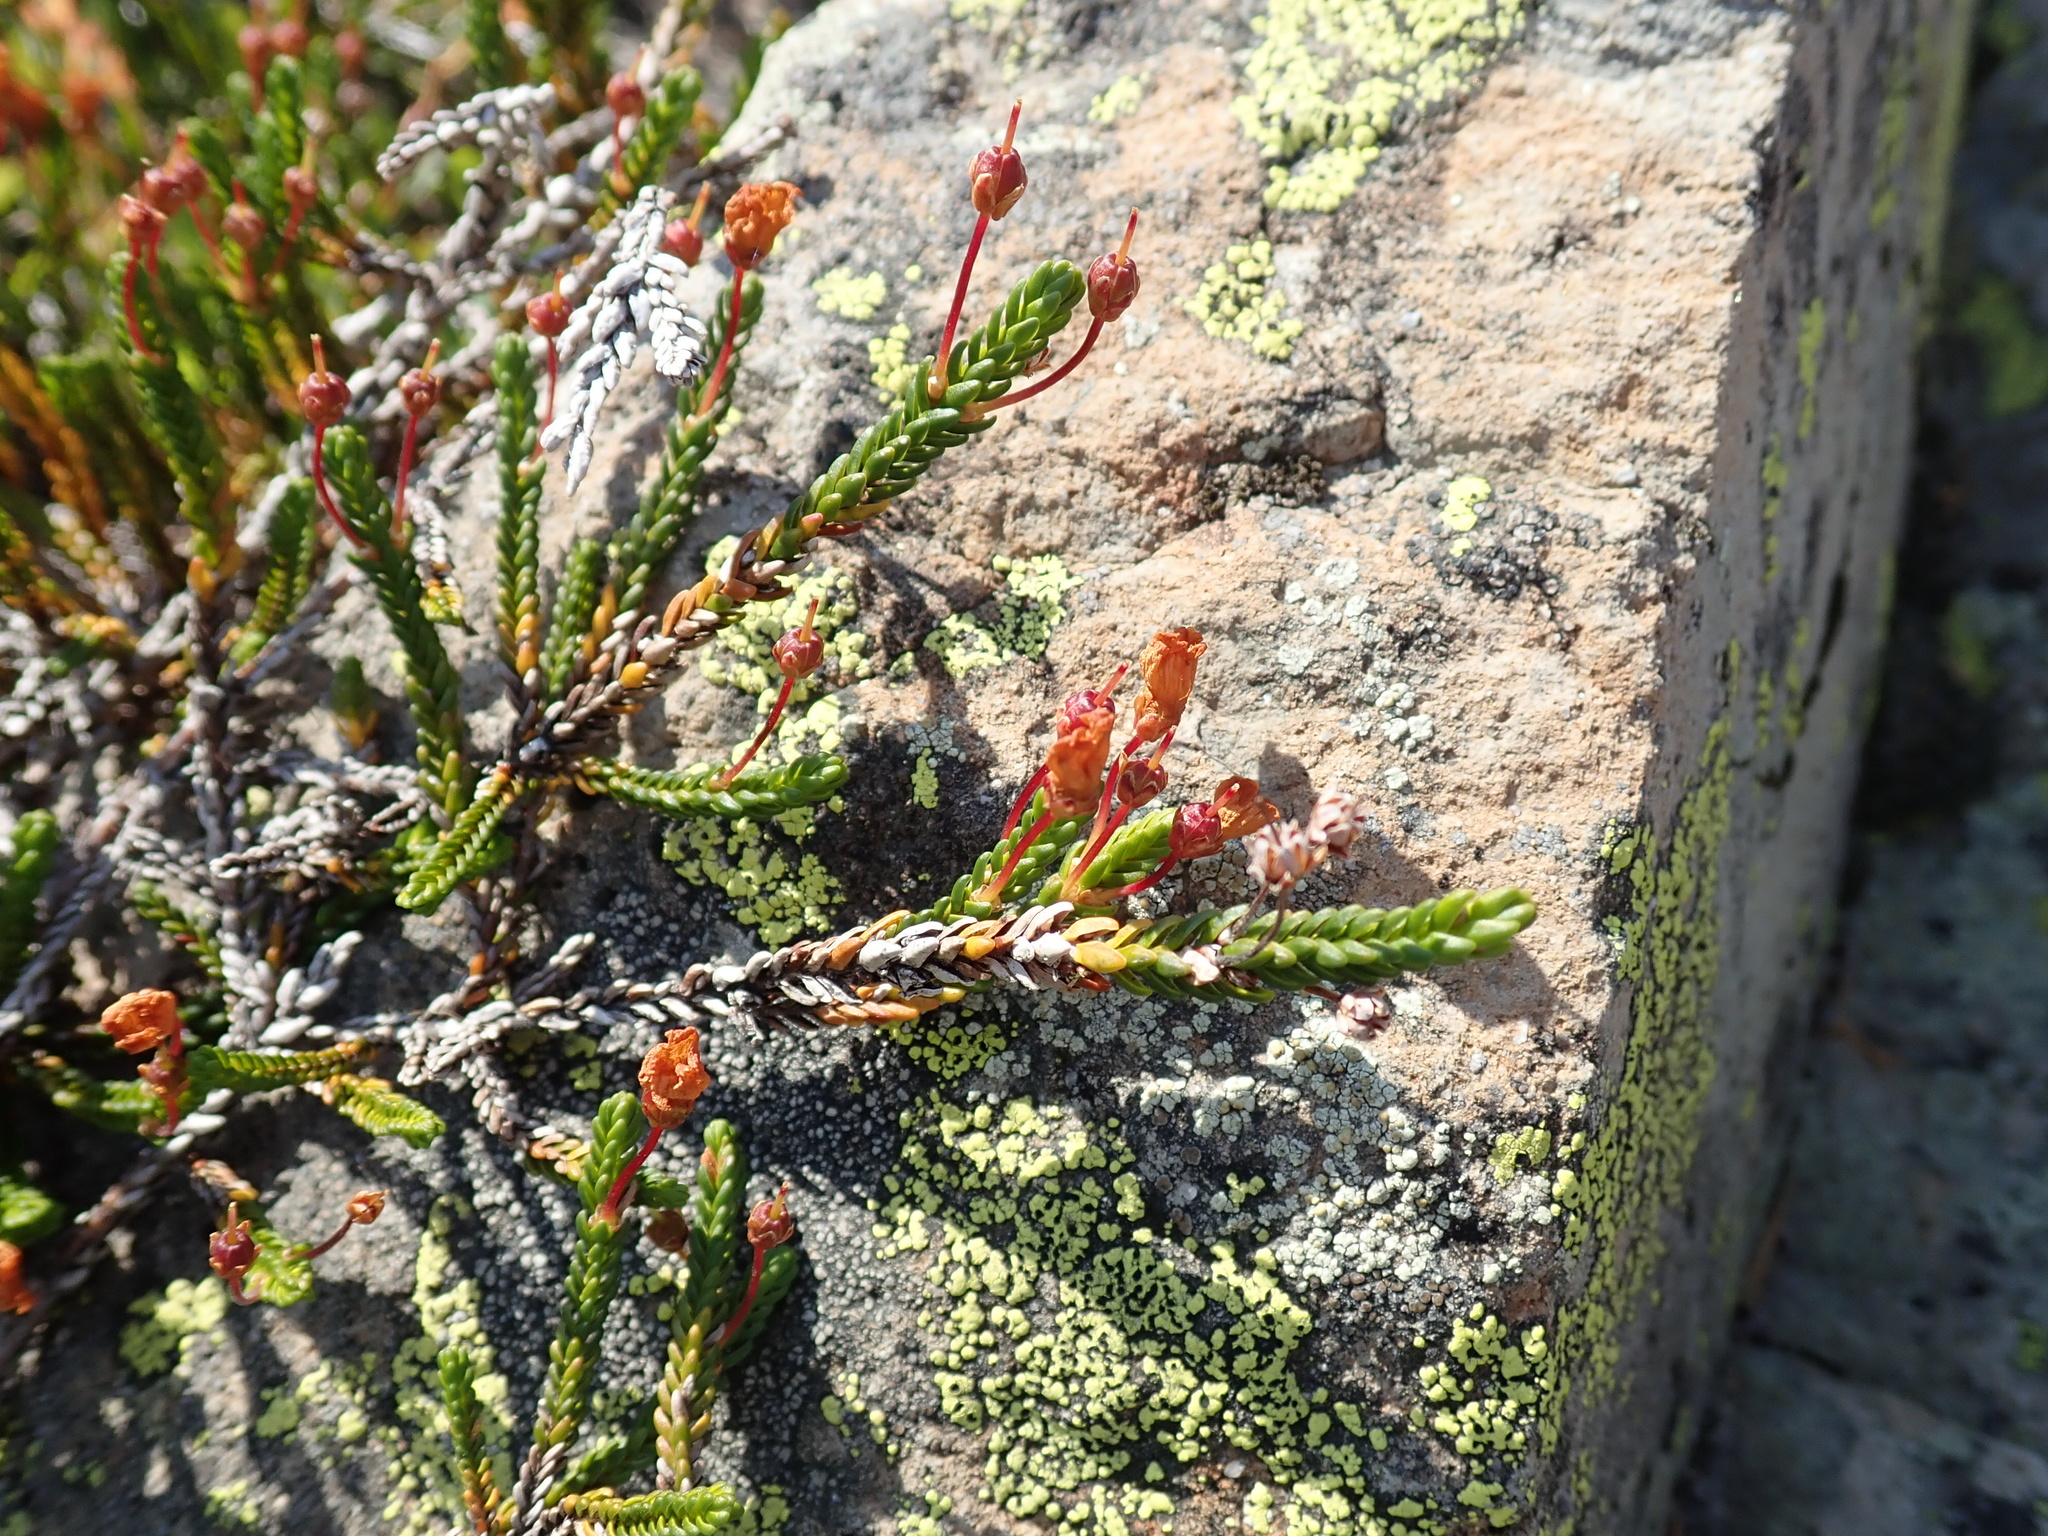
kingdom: Plantae
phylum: Tracheophyta
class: Magnoliopsida
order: Ericales
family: Ericaceae
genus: Cassiope
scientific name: Cassiope mertensiana
